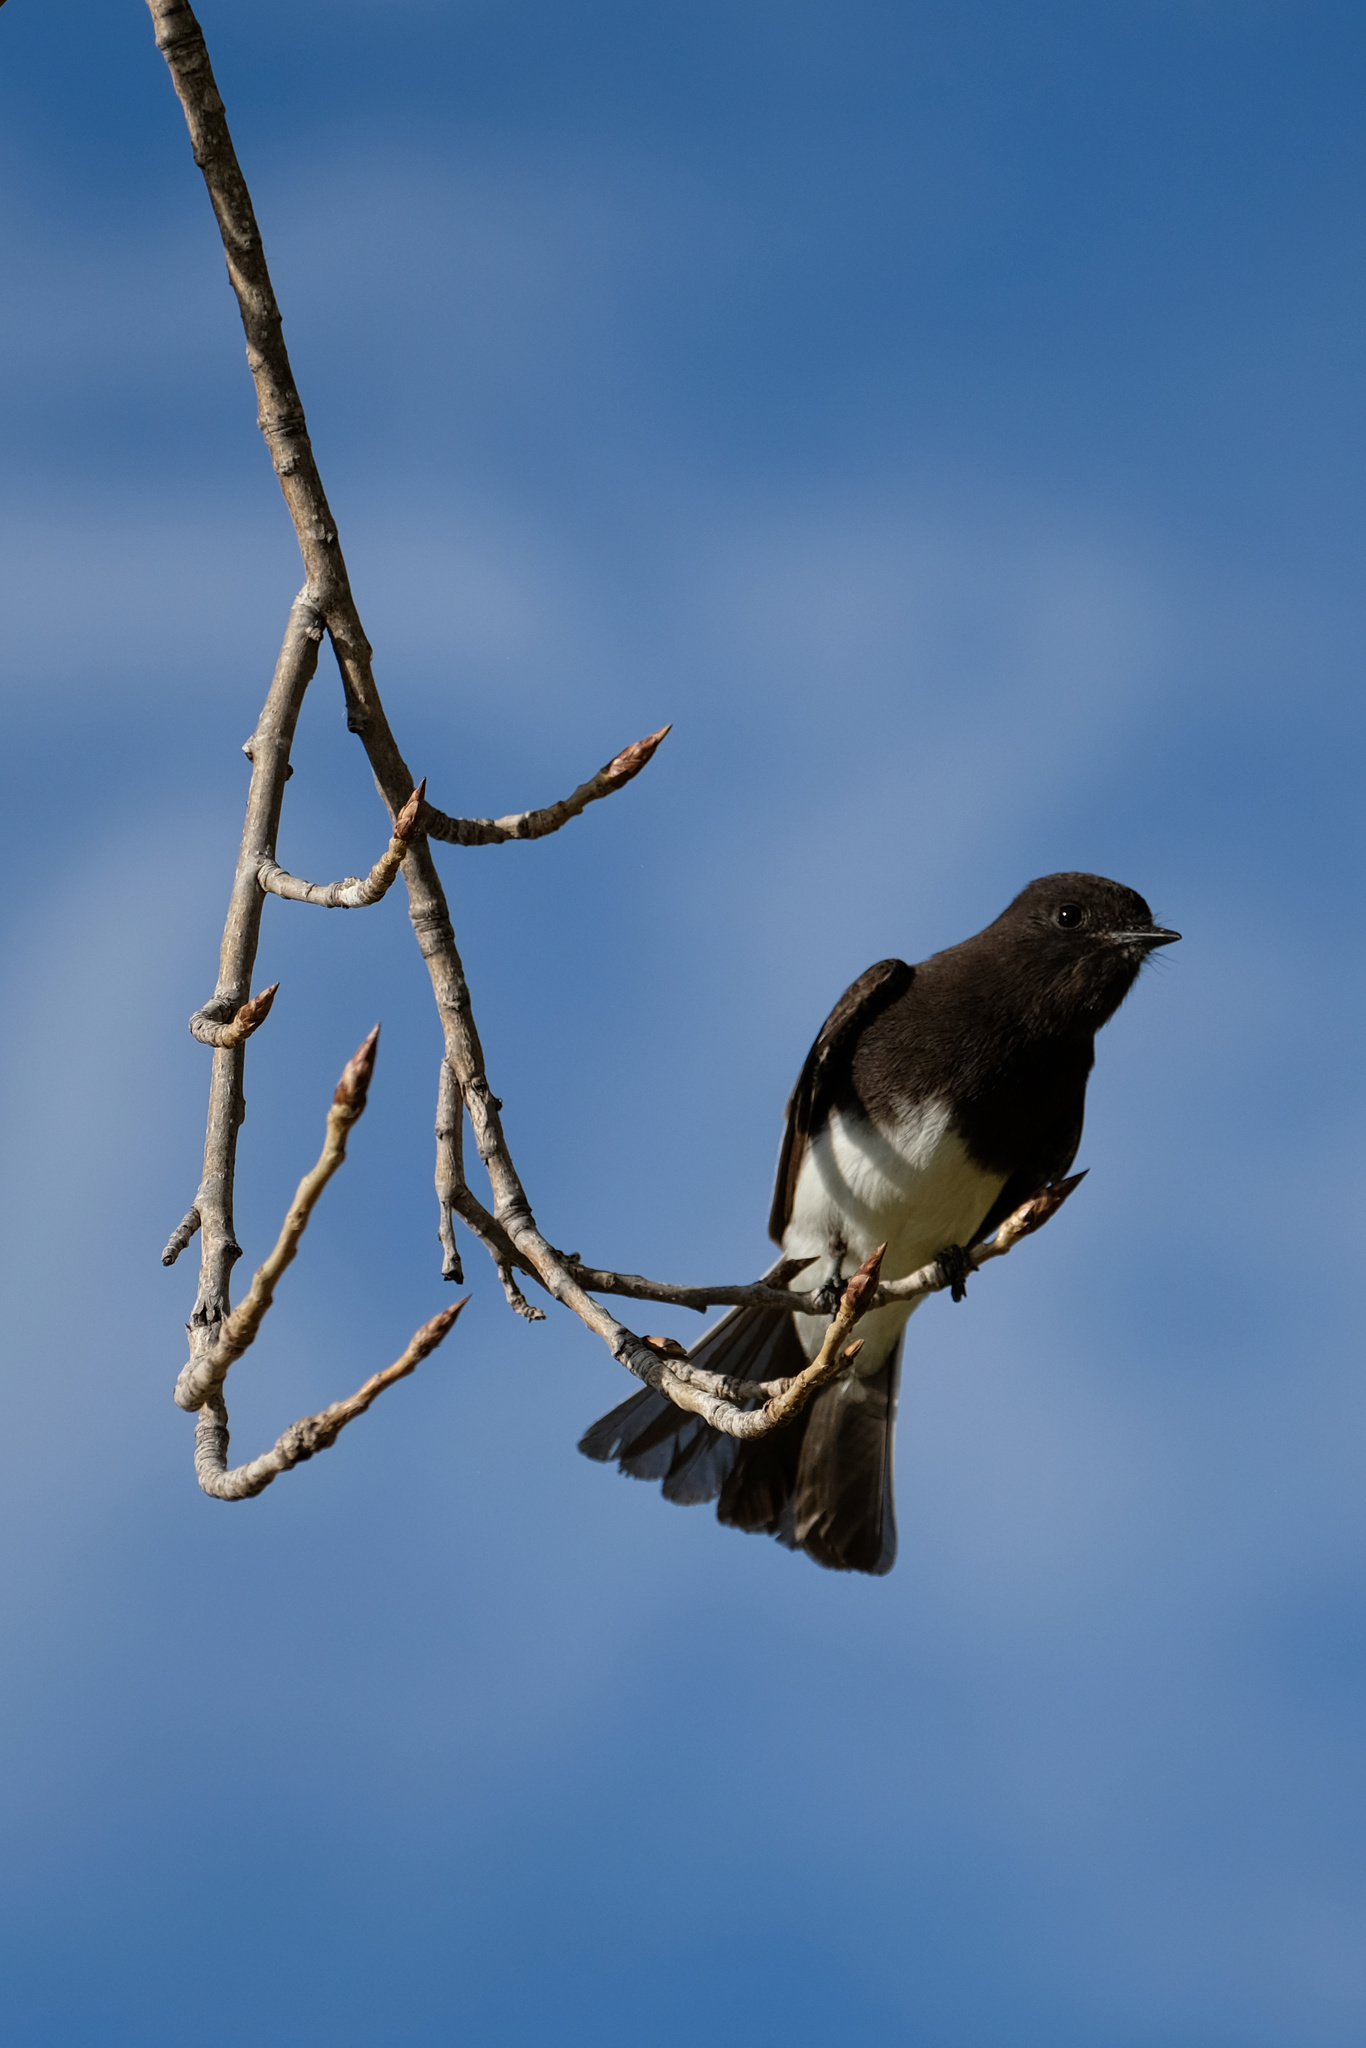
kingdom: Animalia
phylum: Chordata
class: Aves
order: Passeriformes
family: Tyrannidae
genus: Sayornis
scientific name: Sayornis nigricans
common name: Black phoebe
